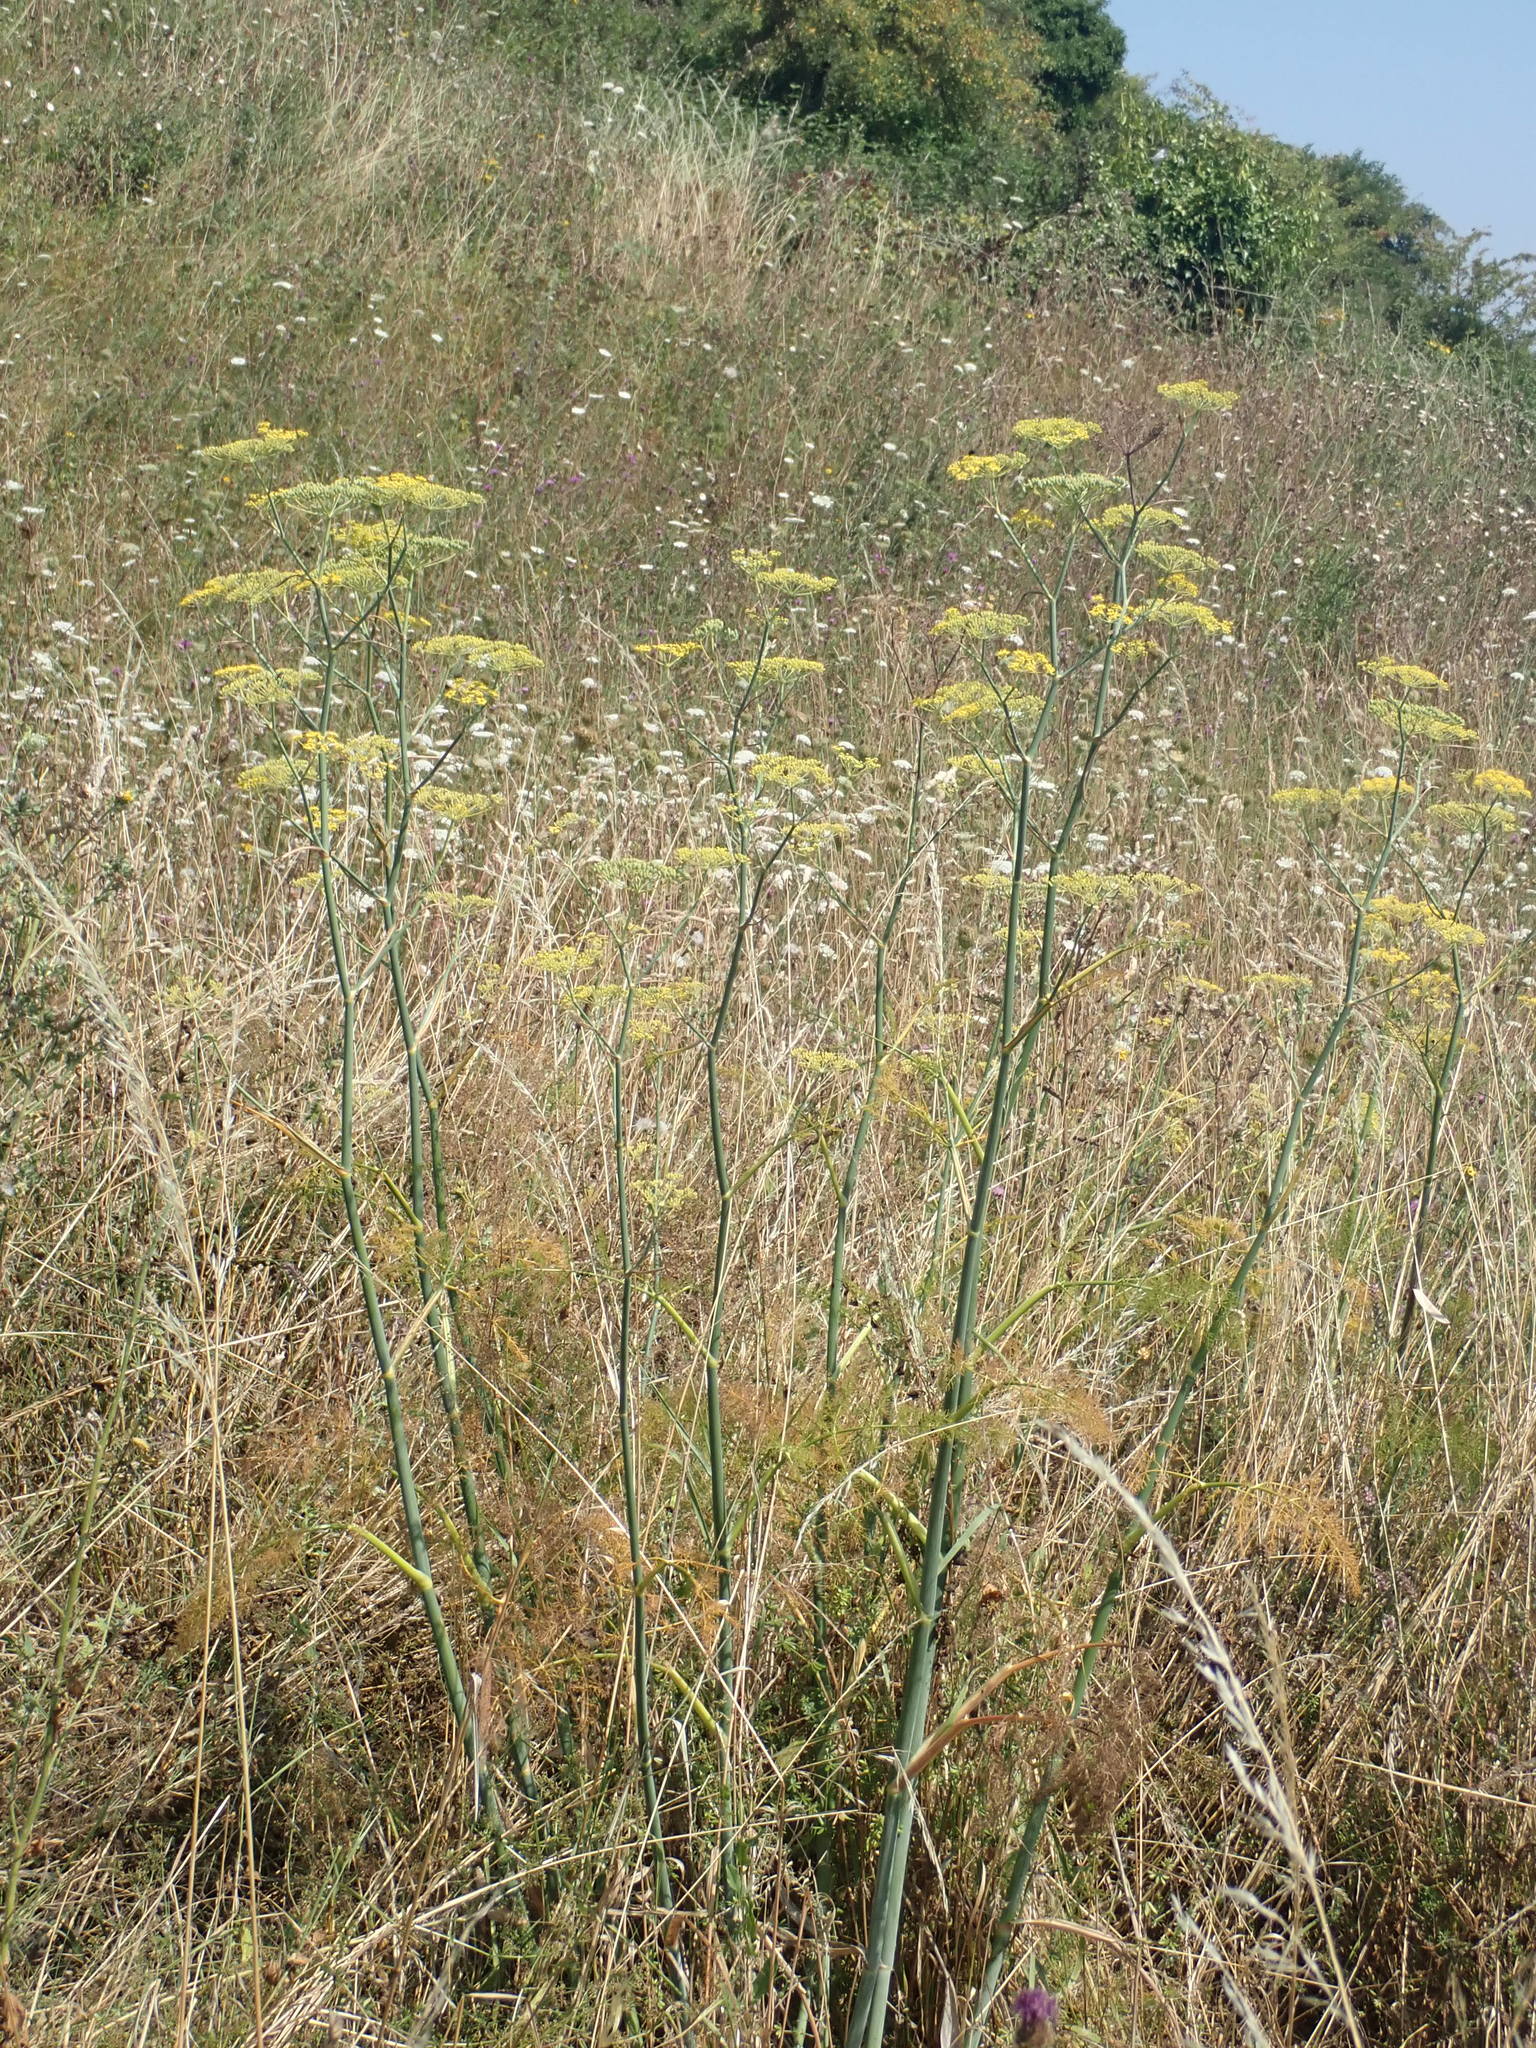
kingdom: Plantae
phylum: Tracheophyta
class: Magnoliopsida
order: Apiales
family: Apiaceae
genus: Foeniculum
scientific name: Foeniculum vulgare
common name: Fennel
